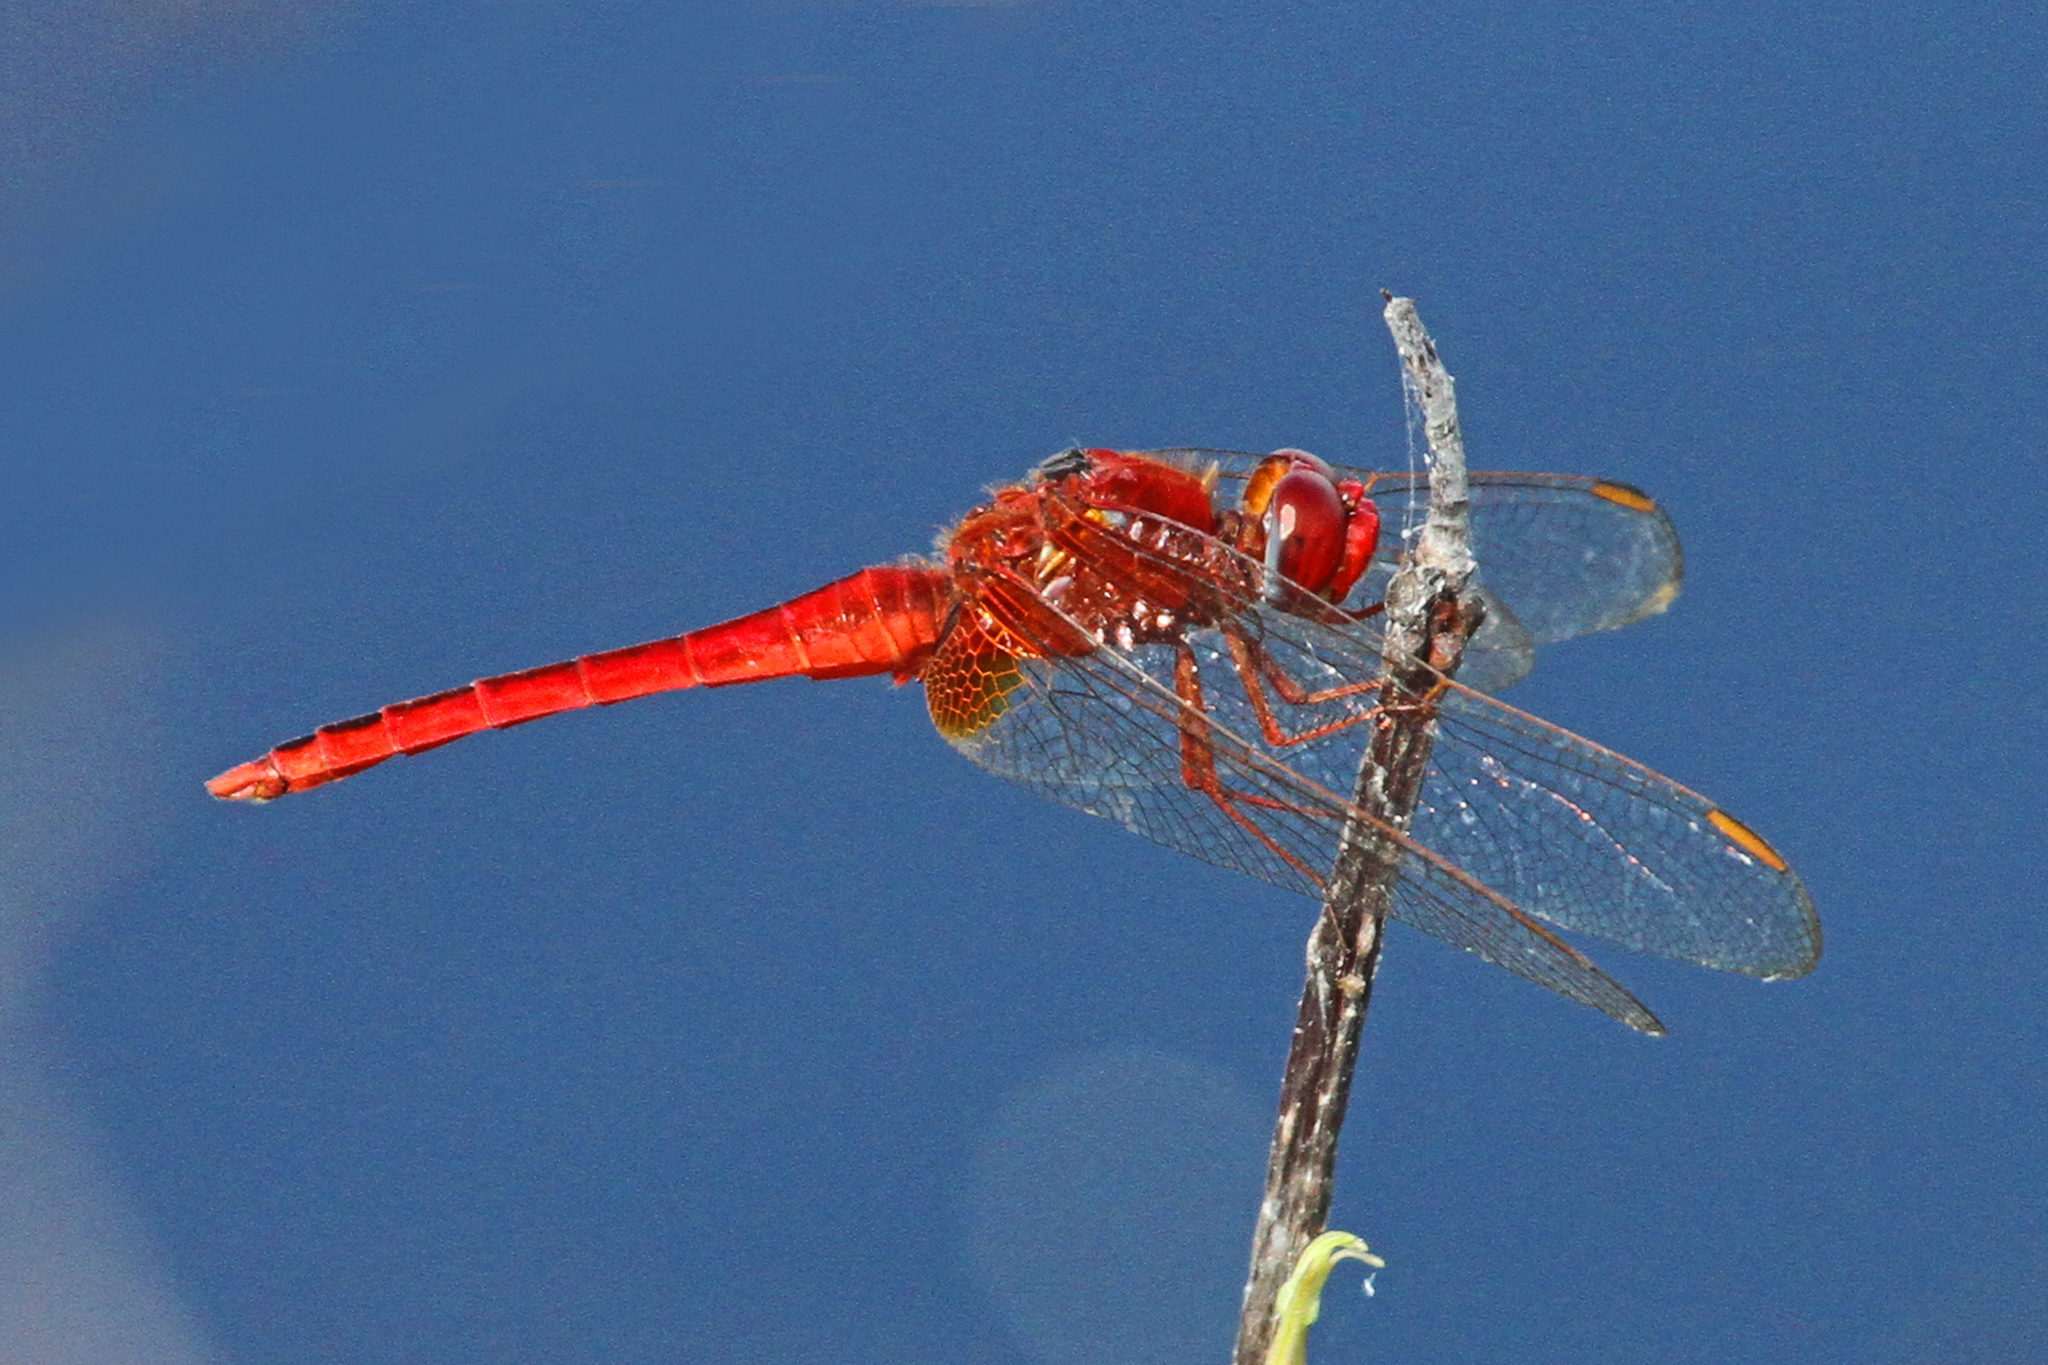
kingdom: Animalia
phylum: Arthropoda
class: Insecta
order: Odonata
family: Libellulidae
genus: Crocothemis
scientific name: Crocothemis servilia
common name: Scarlet skimmer
